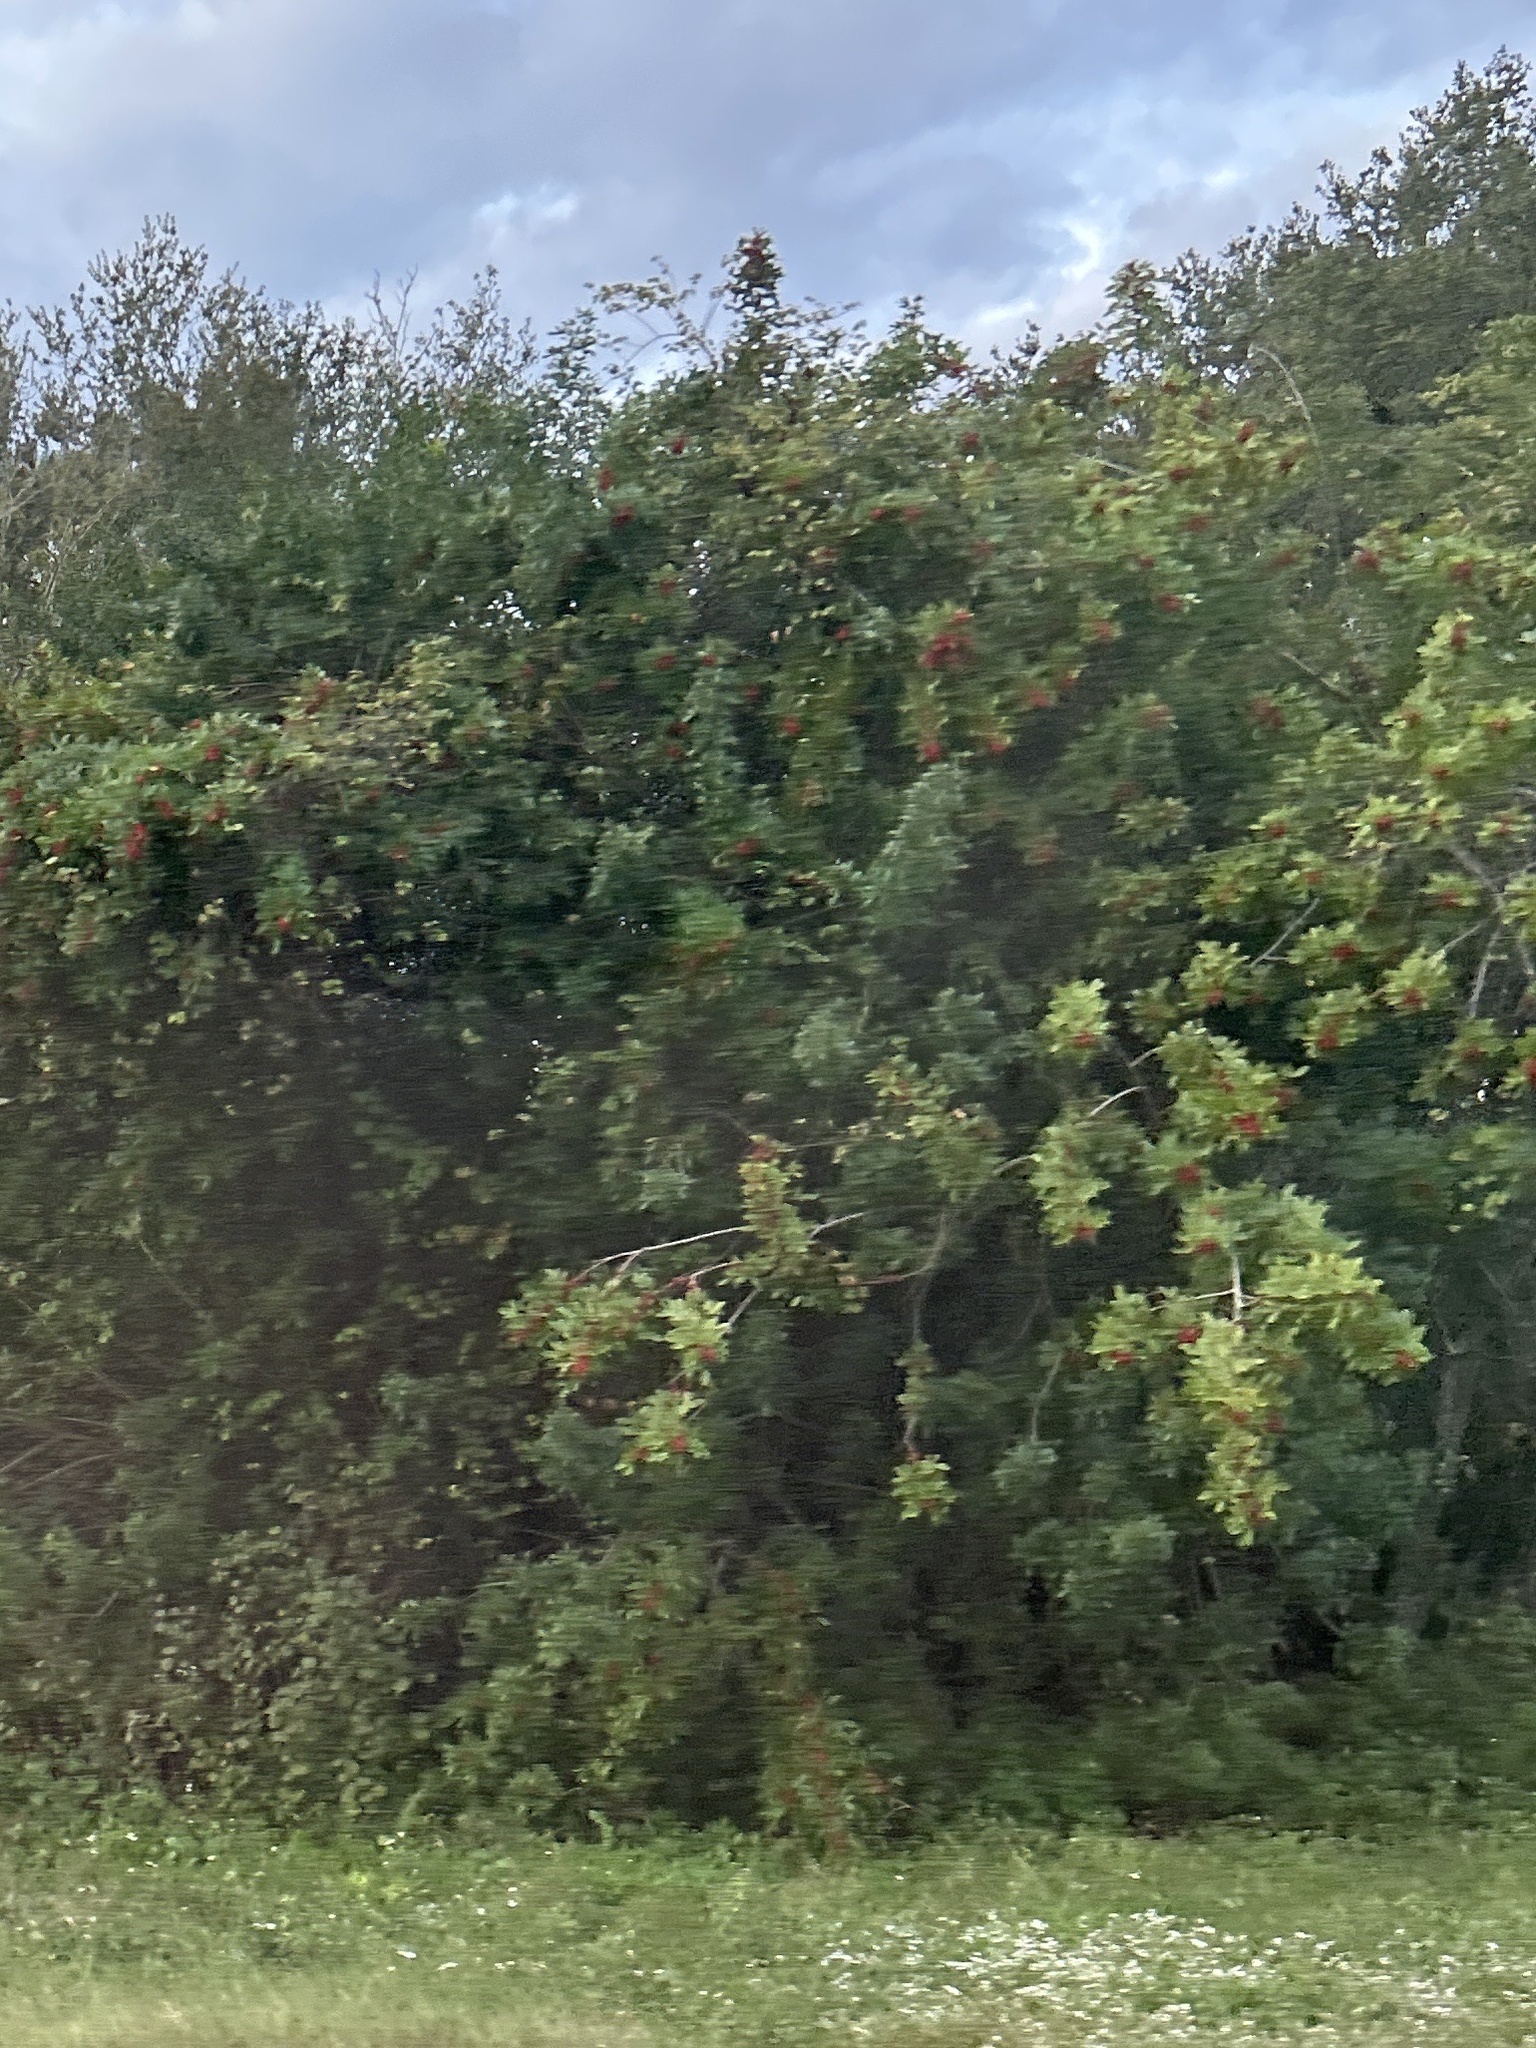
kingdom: Plantae
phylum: Tracheophyta
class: Magnoliopsida
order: Sapindales
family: Anacardiaceae
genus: Schinus
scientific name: Schinus terebinthifolia
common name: Brazilian peppertree
